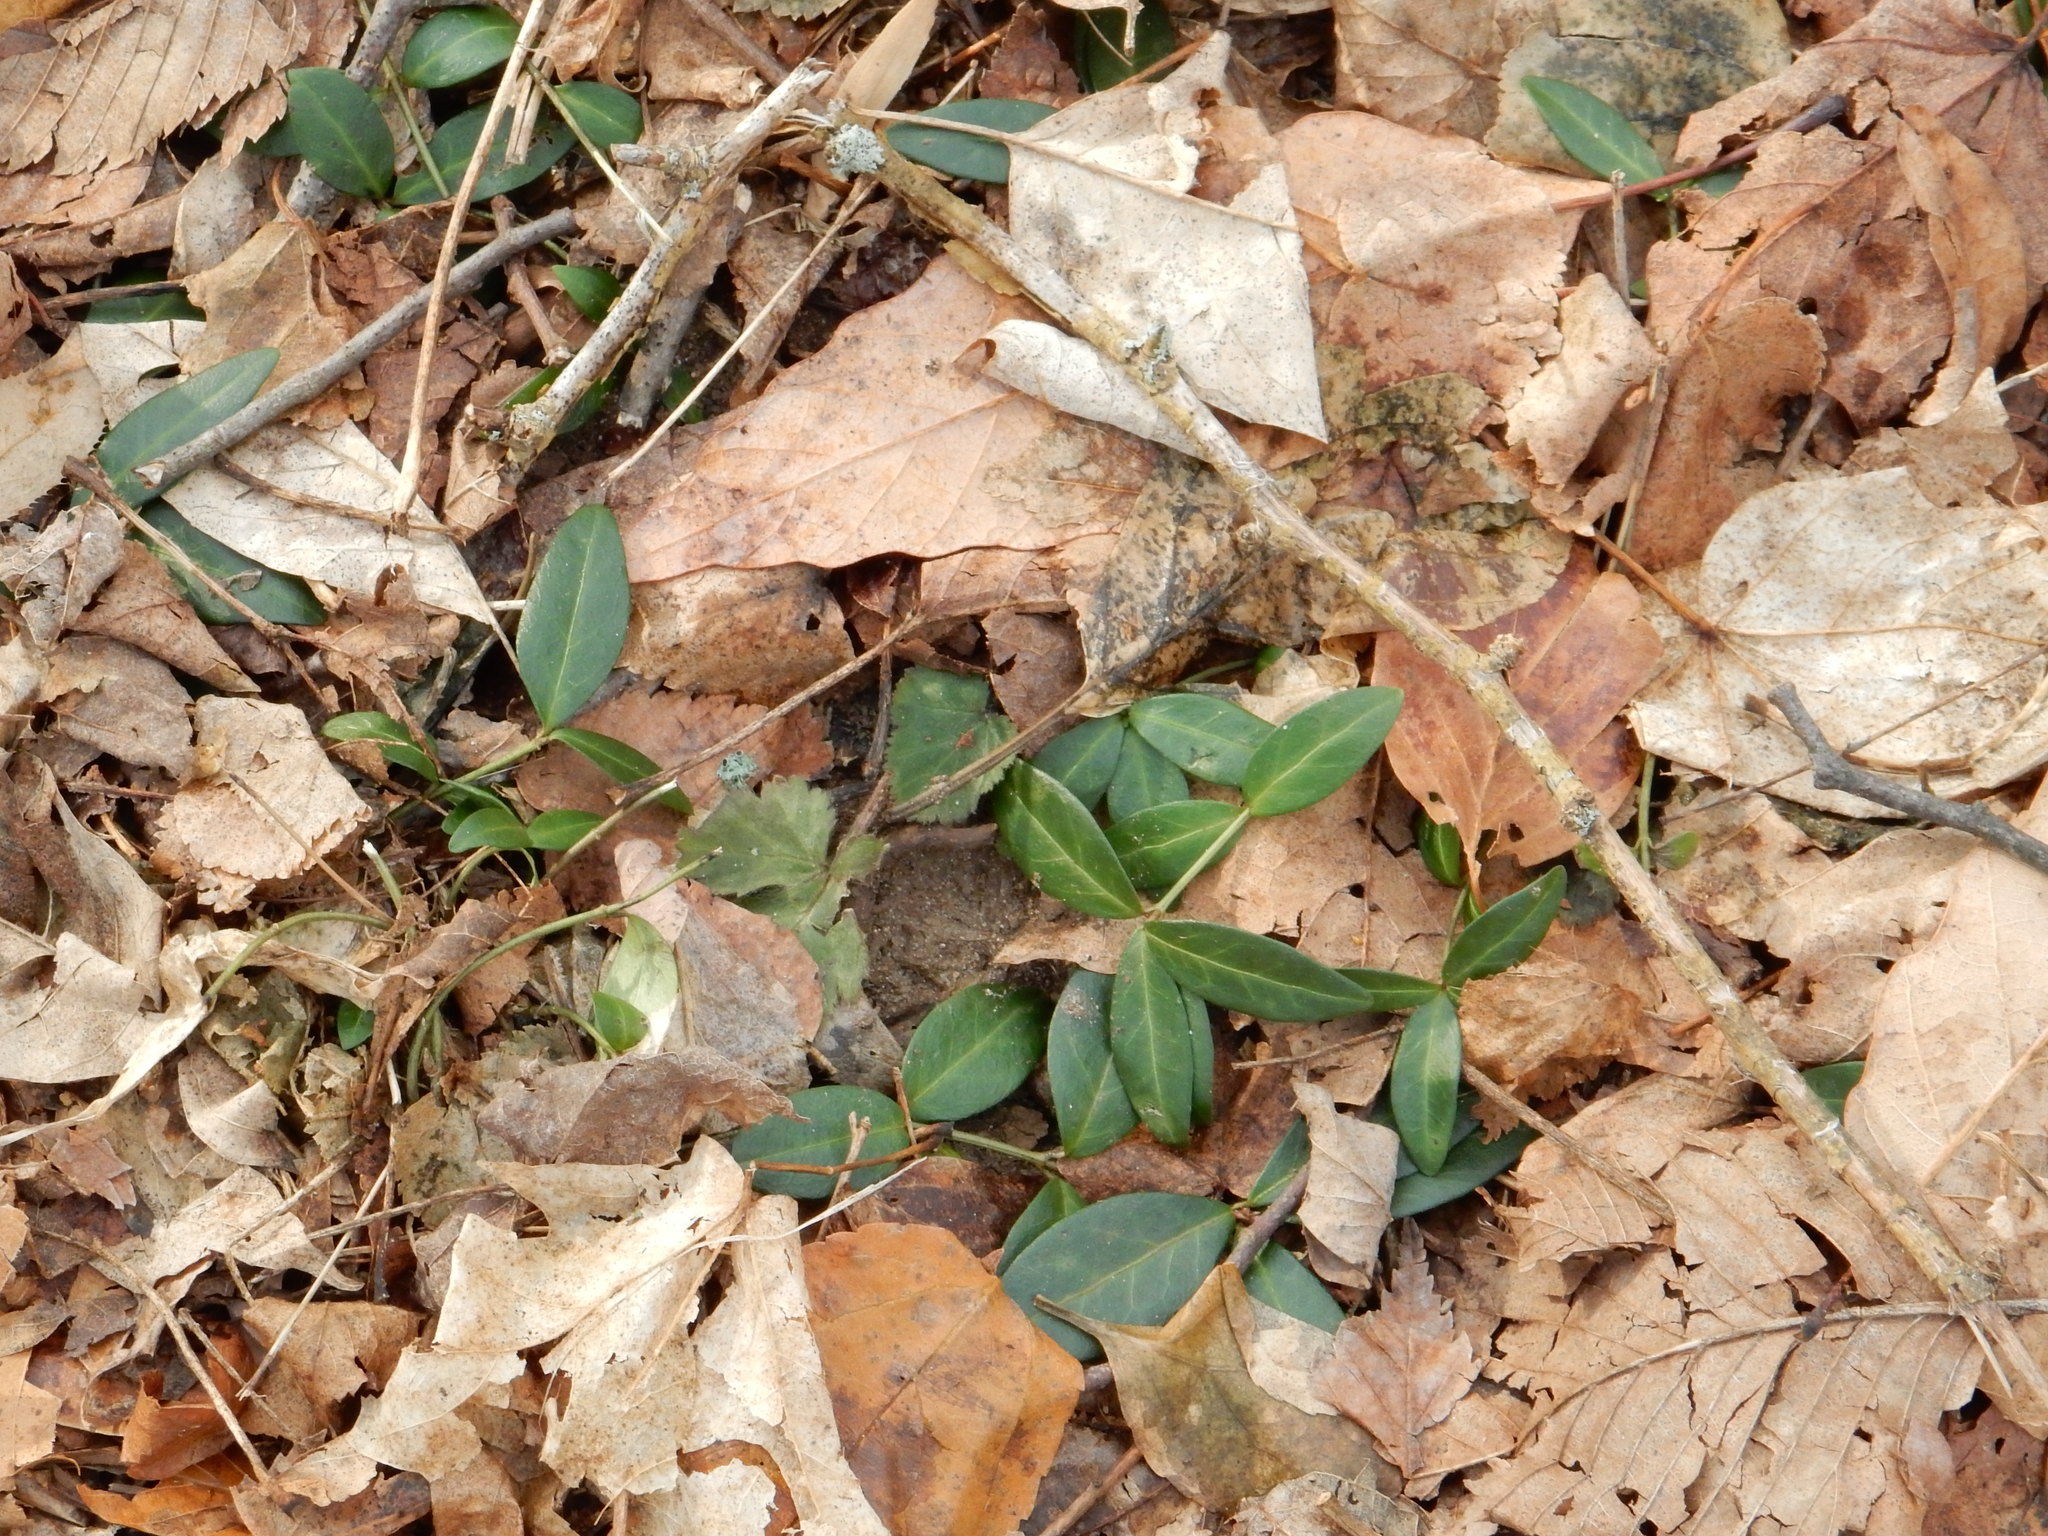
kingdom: Plantae
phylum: Tracheophyta
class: Magnoliopsida
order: Gentianales
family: Apocynaceae
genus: Vinca
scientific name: Vinca minor
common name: Lesser periwinkle
